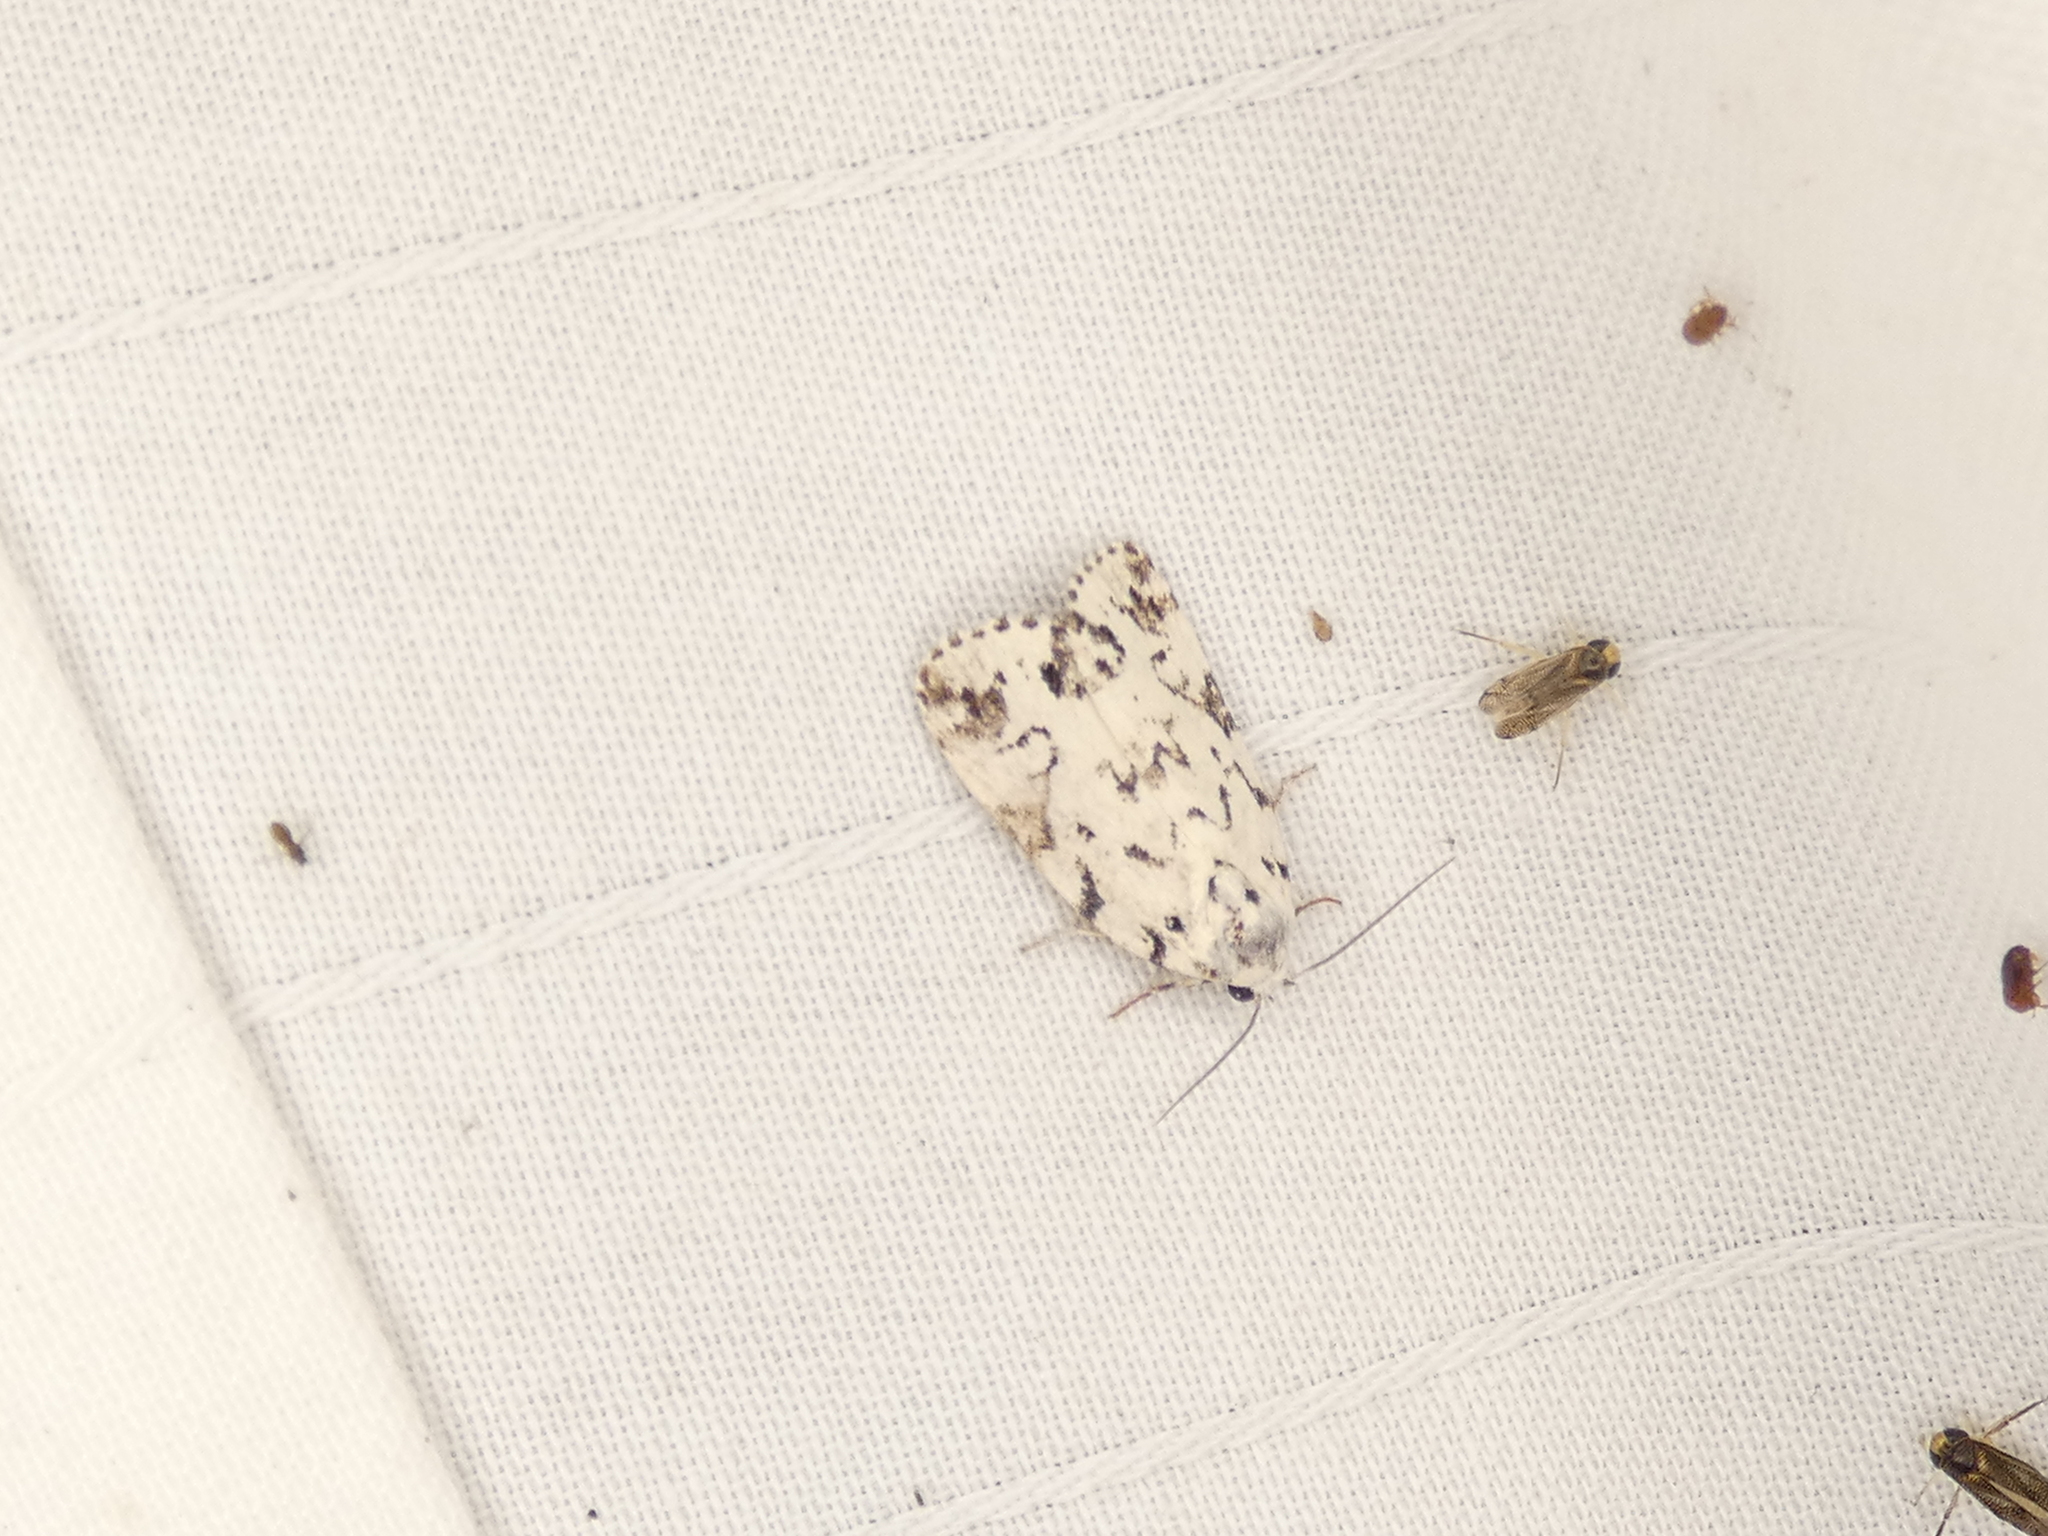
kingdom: Animalia
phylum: Arthropoda
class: Insecta
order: Lepidoptera
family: Noctuidae
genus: Polygrammate
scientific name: Polygrammate hebraeicum
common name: Hebrew moth
